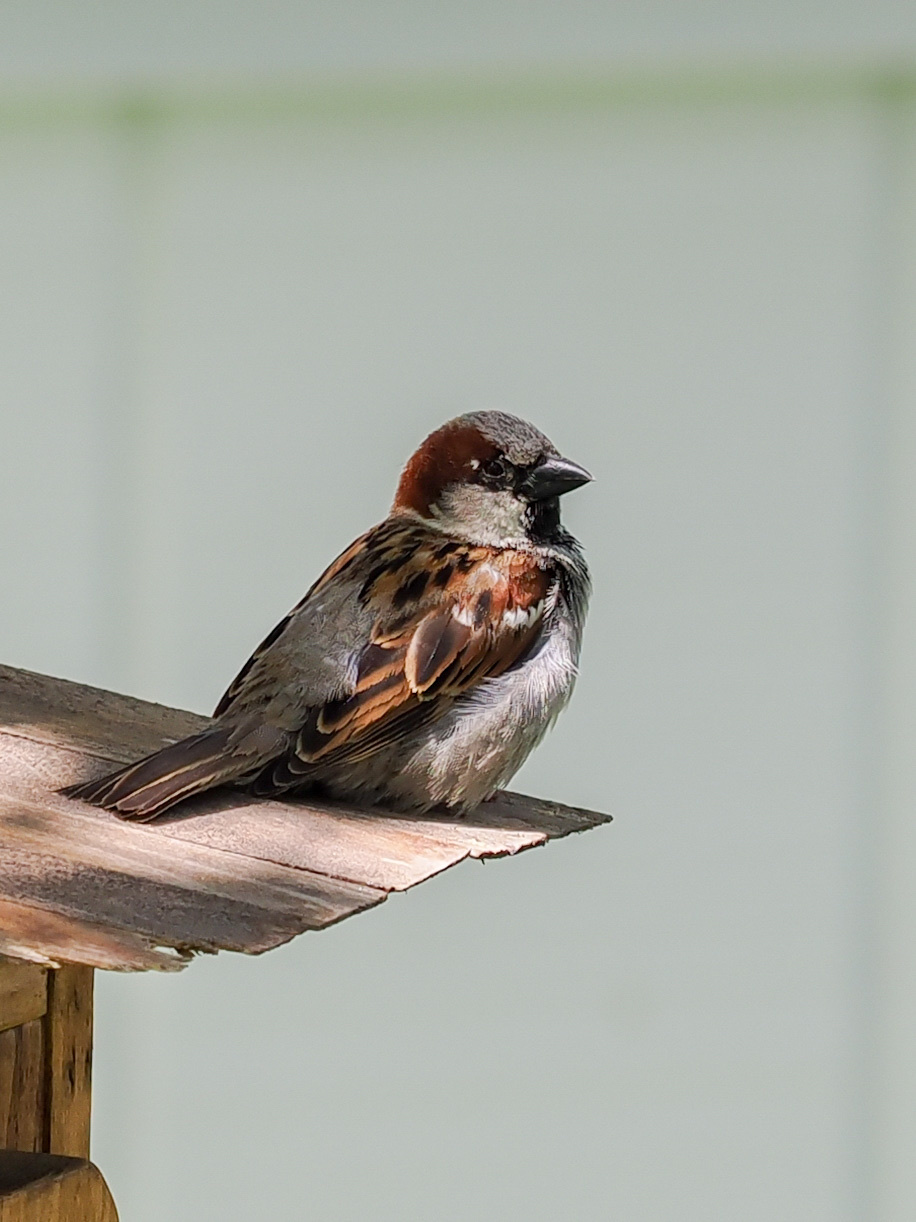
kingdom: Animalia
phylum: Chordata
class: Aves
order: Passeriformes
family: Passeridae
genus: Passer
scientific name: Passer domesticus
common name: House sparrow
